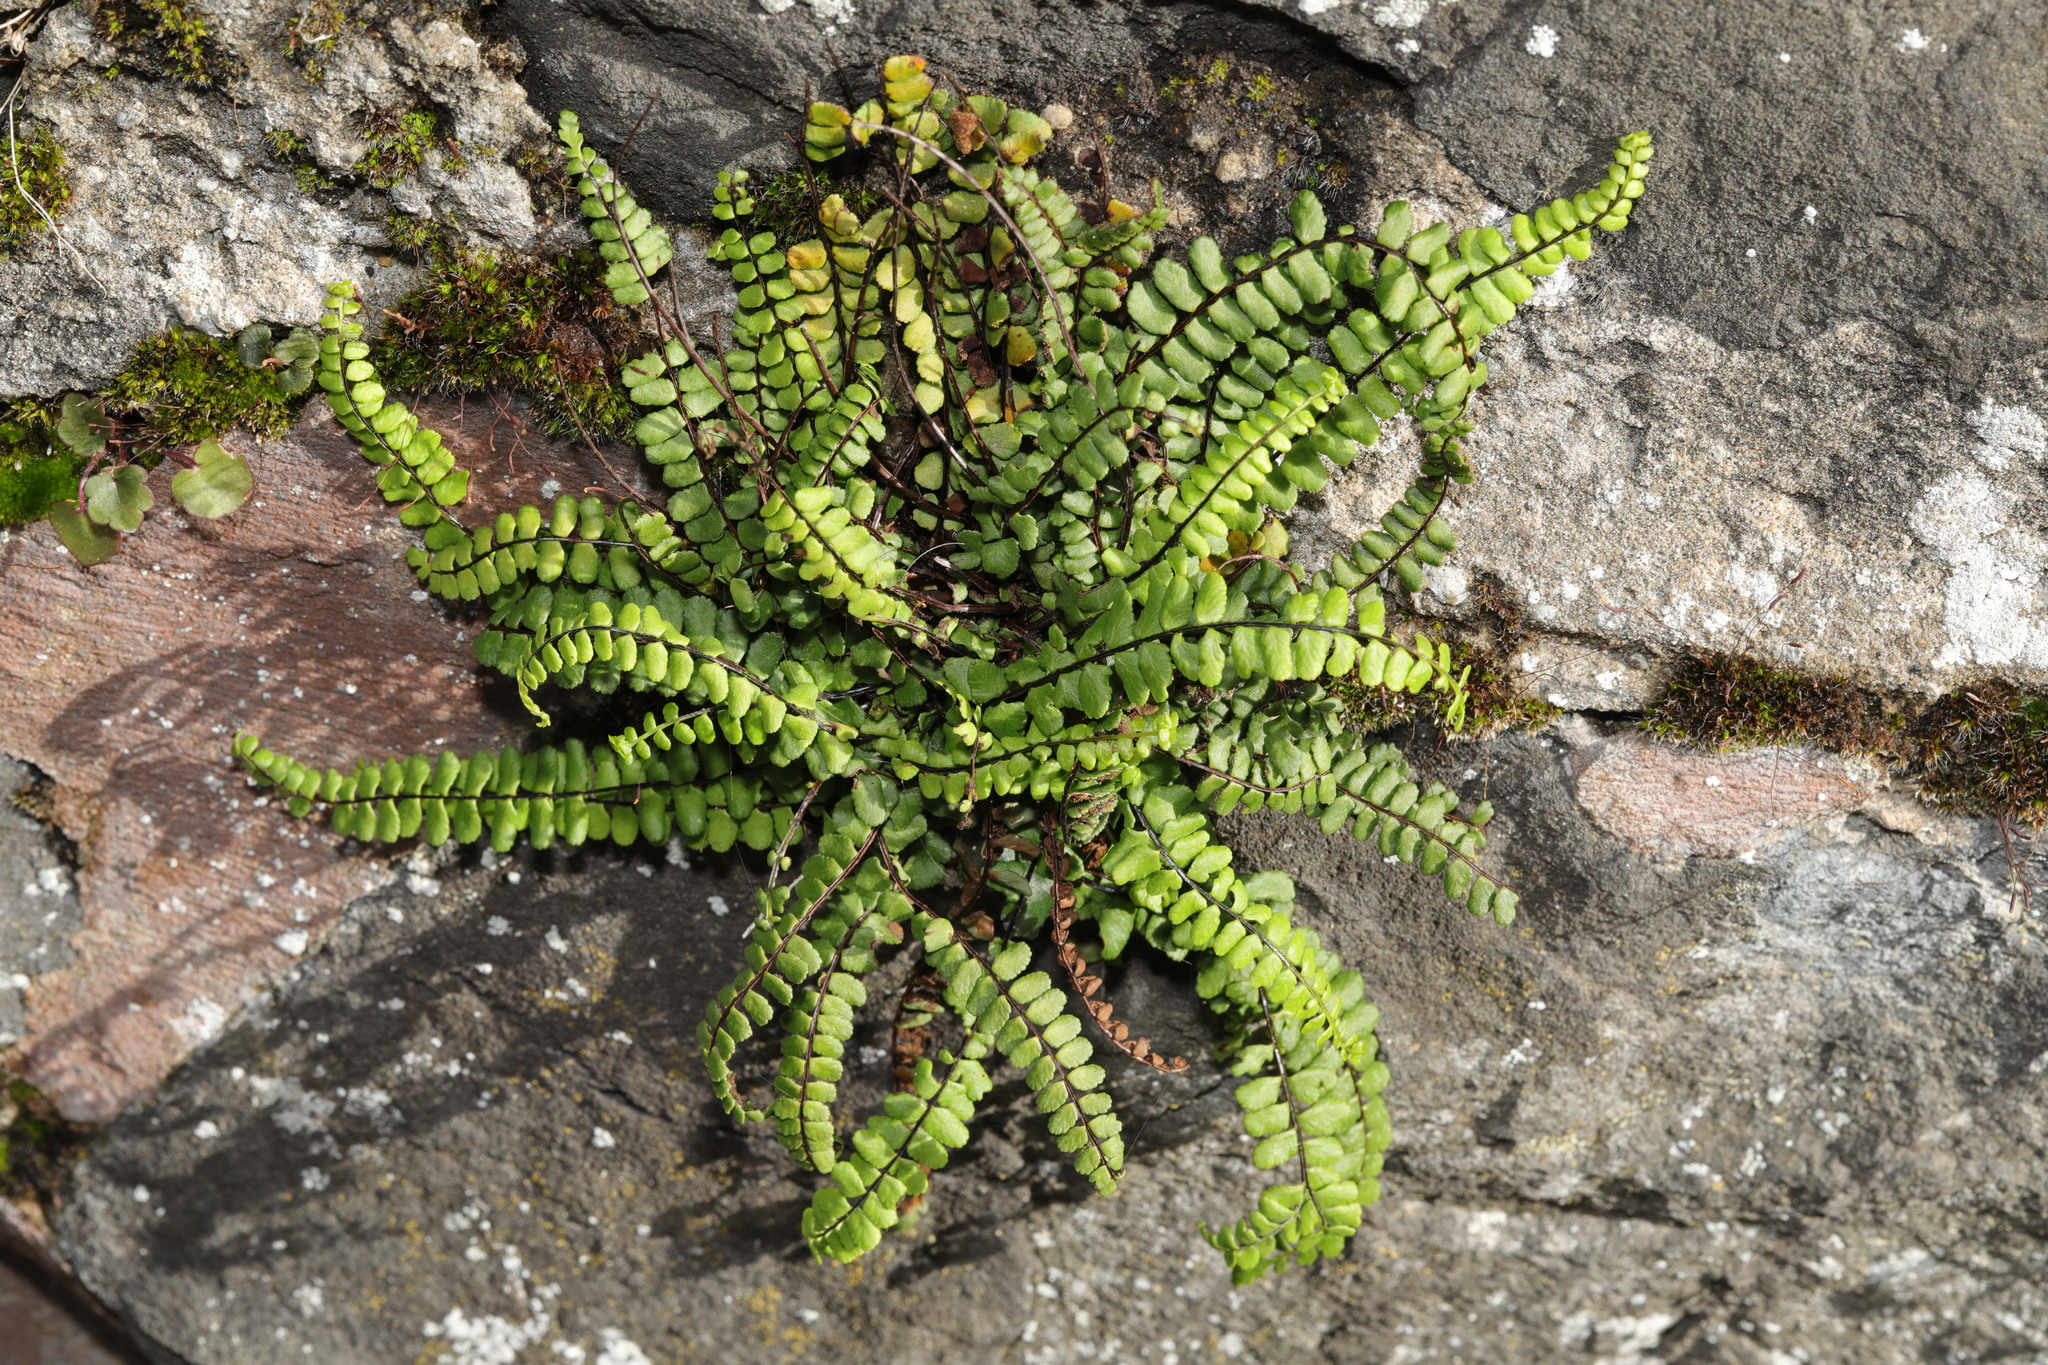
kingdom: Plantae
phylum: Tracheophyta
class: Polypodiopsida
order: Polypodiales
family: Aspleniaceae
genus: Asplenium
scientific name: Asplenium trichomanes
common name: Maidenhair spleenwort
